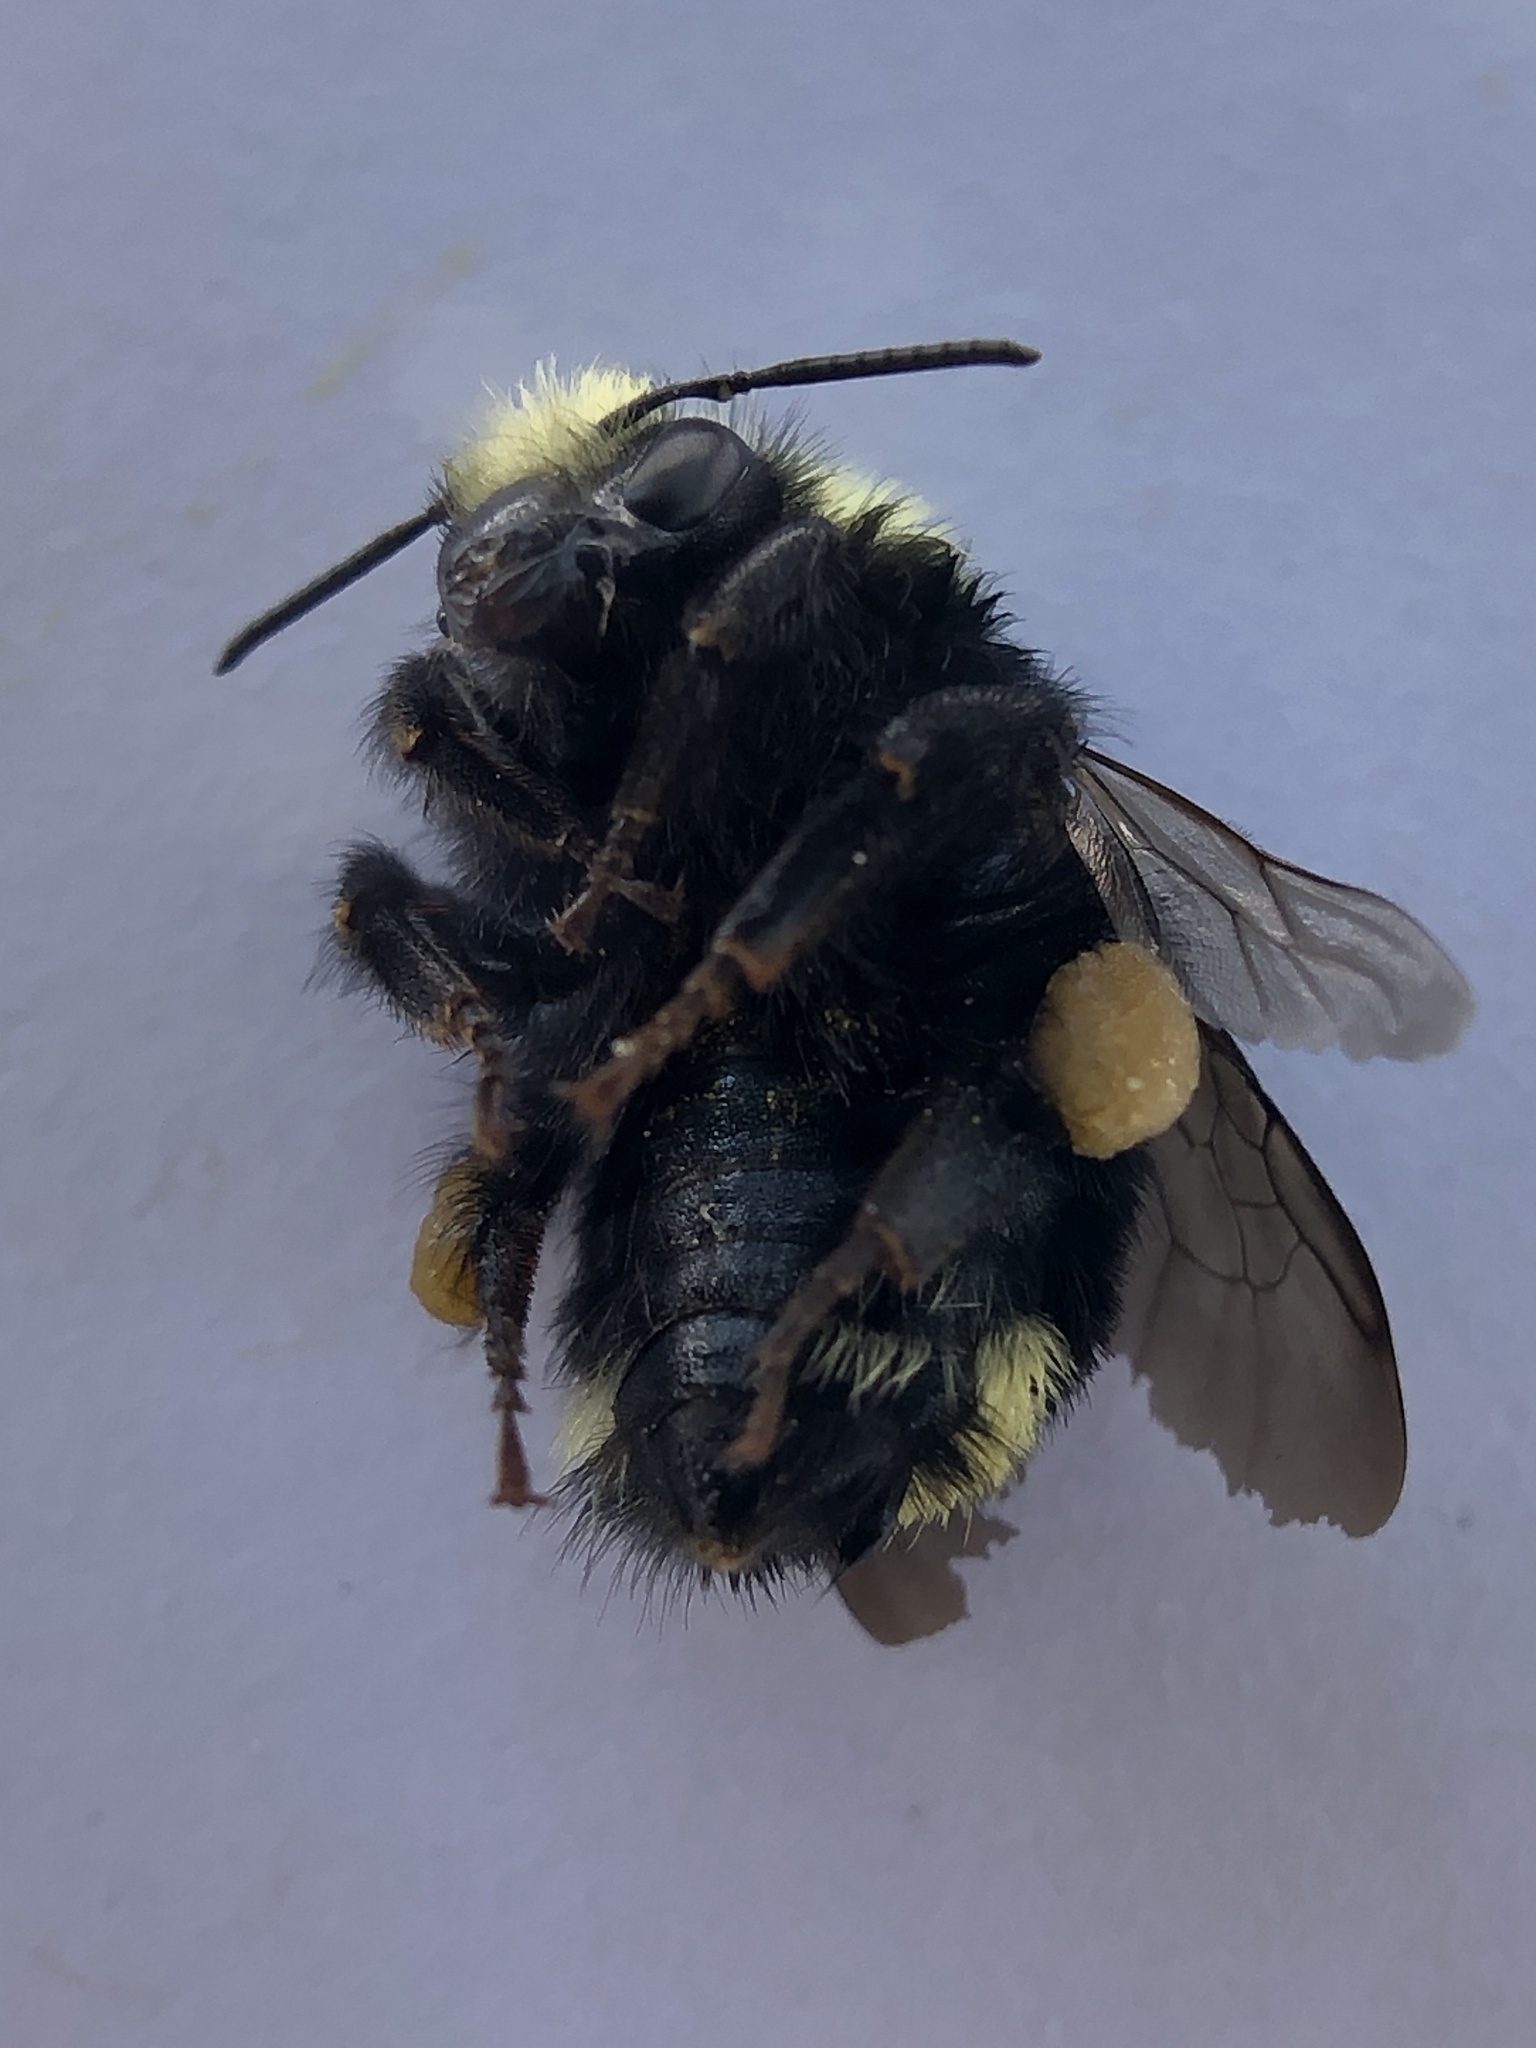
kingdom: Animalia
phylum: Arthropoda
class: Insecta
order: Hymenoptera
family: Apidae
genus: Bombus
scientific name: Bombus caliginosus
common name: Obscure bumble bee
